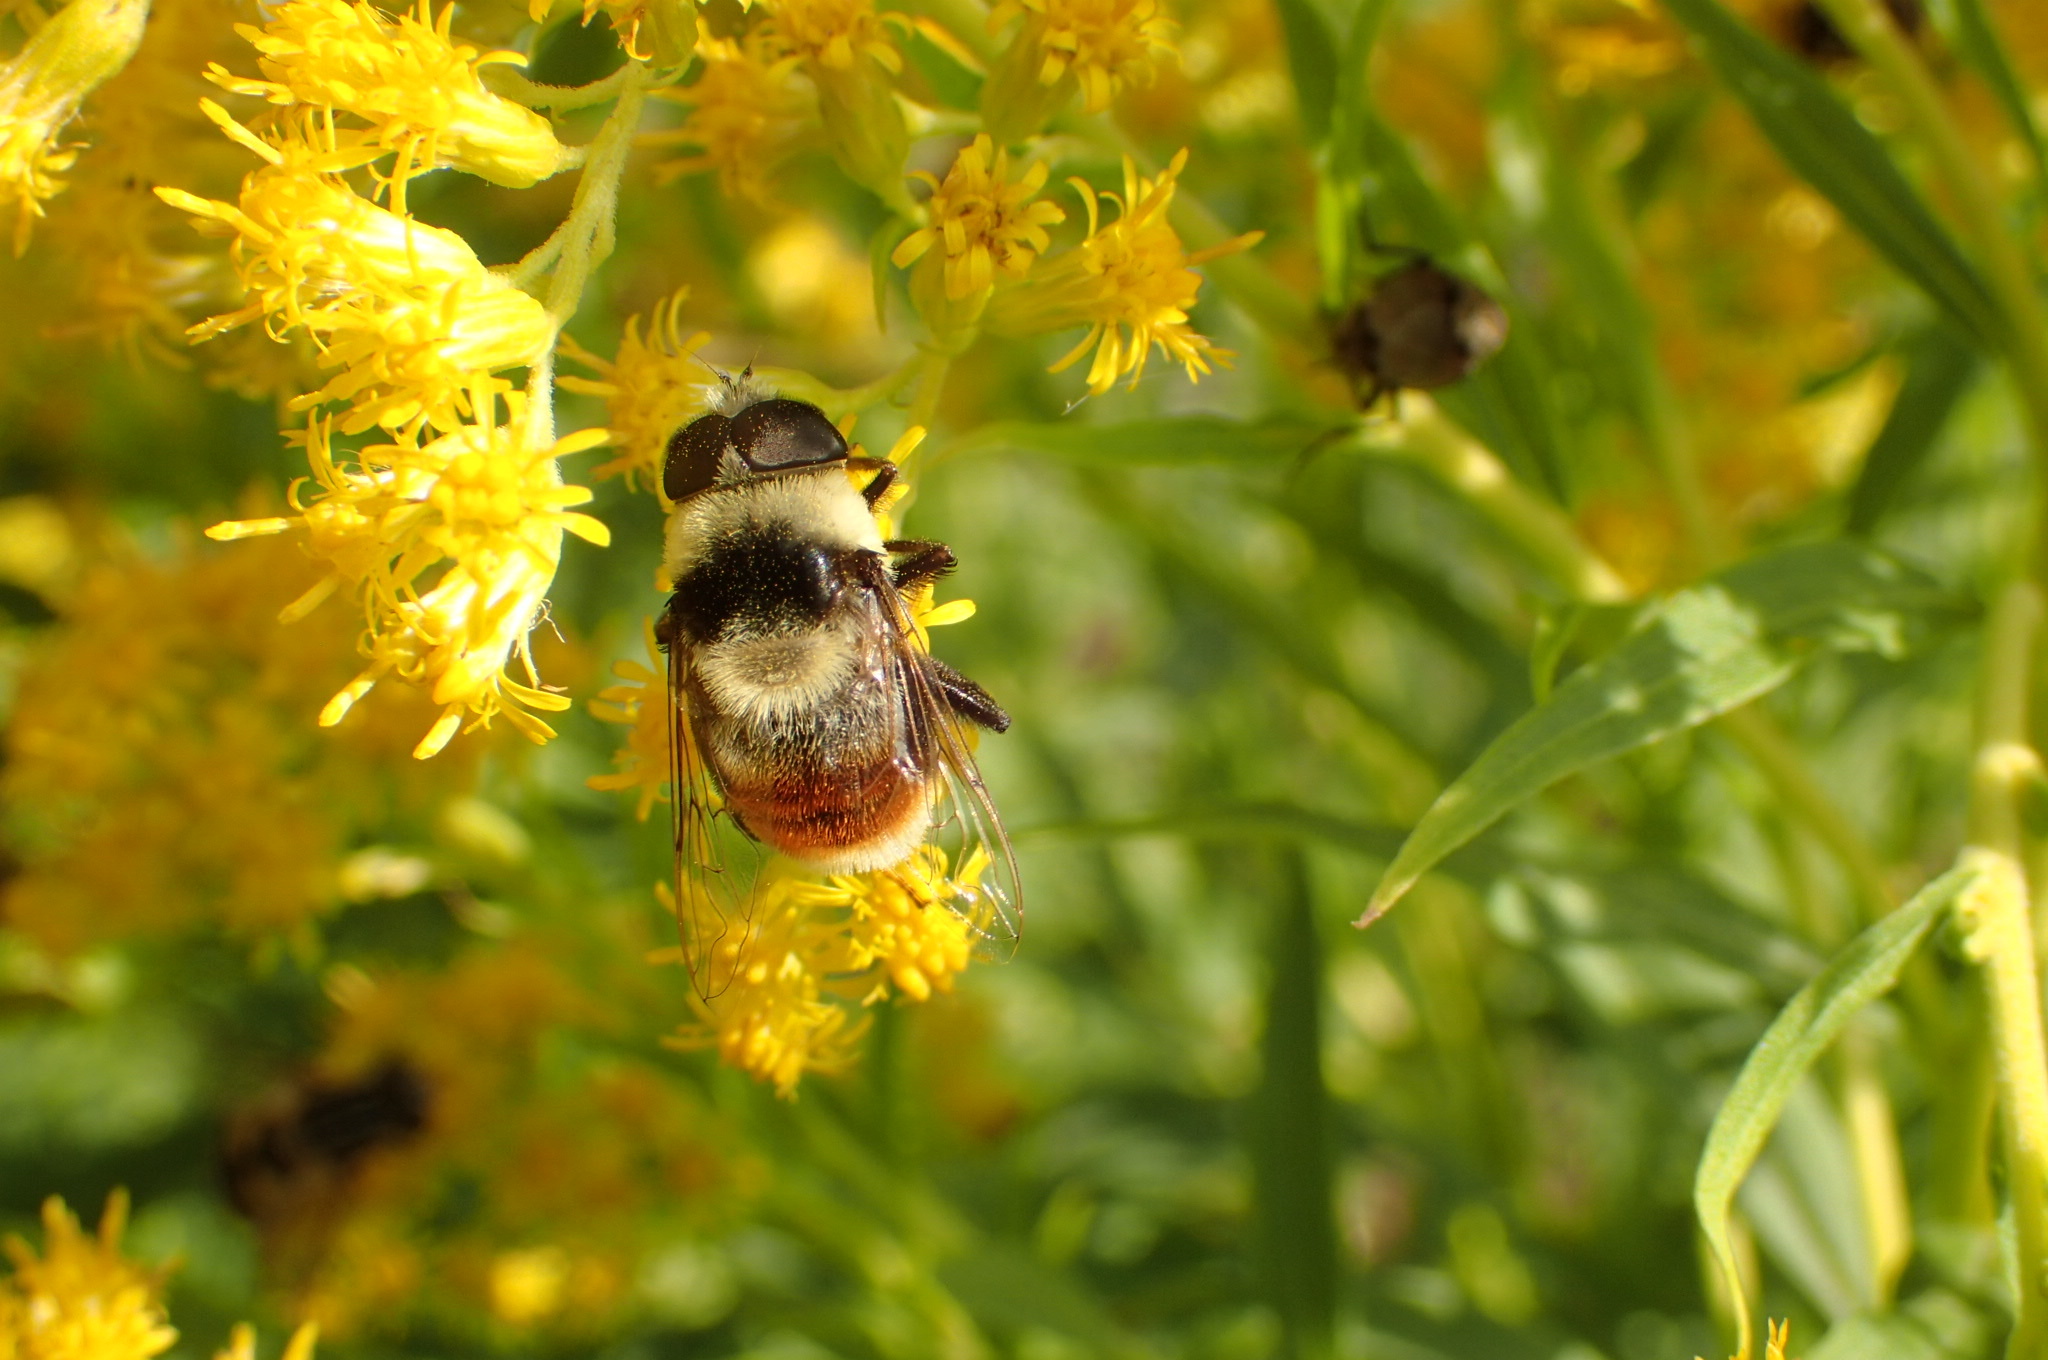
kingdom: Animalia
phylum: Arthropoda
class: Insecta
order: Diptera
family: Syrphidae
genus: Eristalis
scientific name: Eristalis flavipes
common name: Orange-legged drone fly
